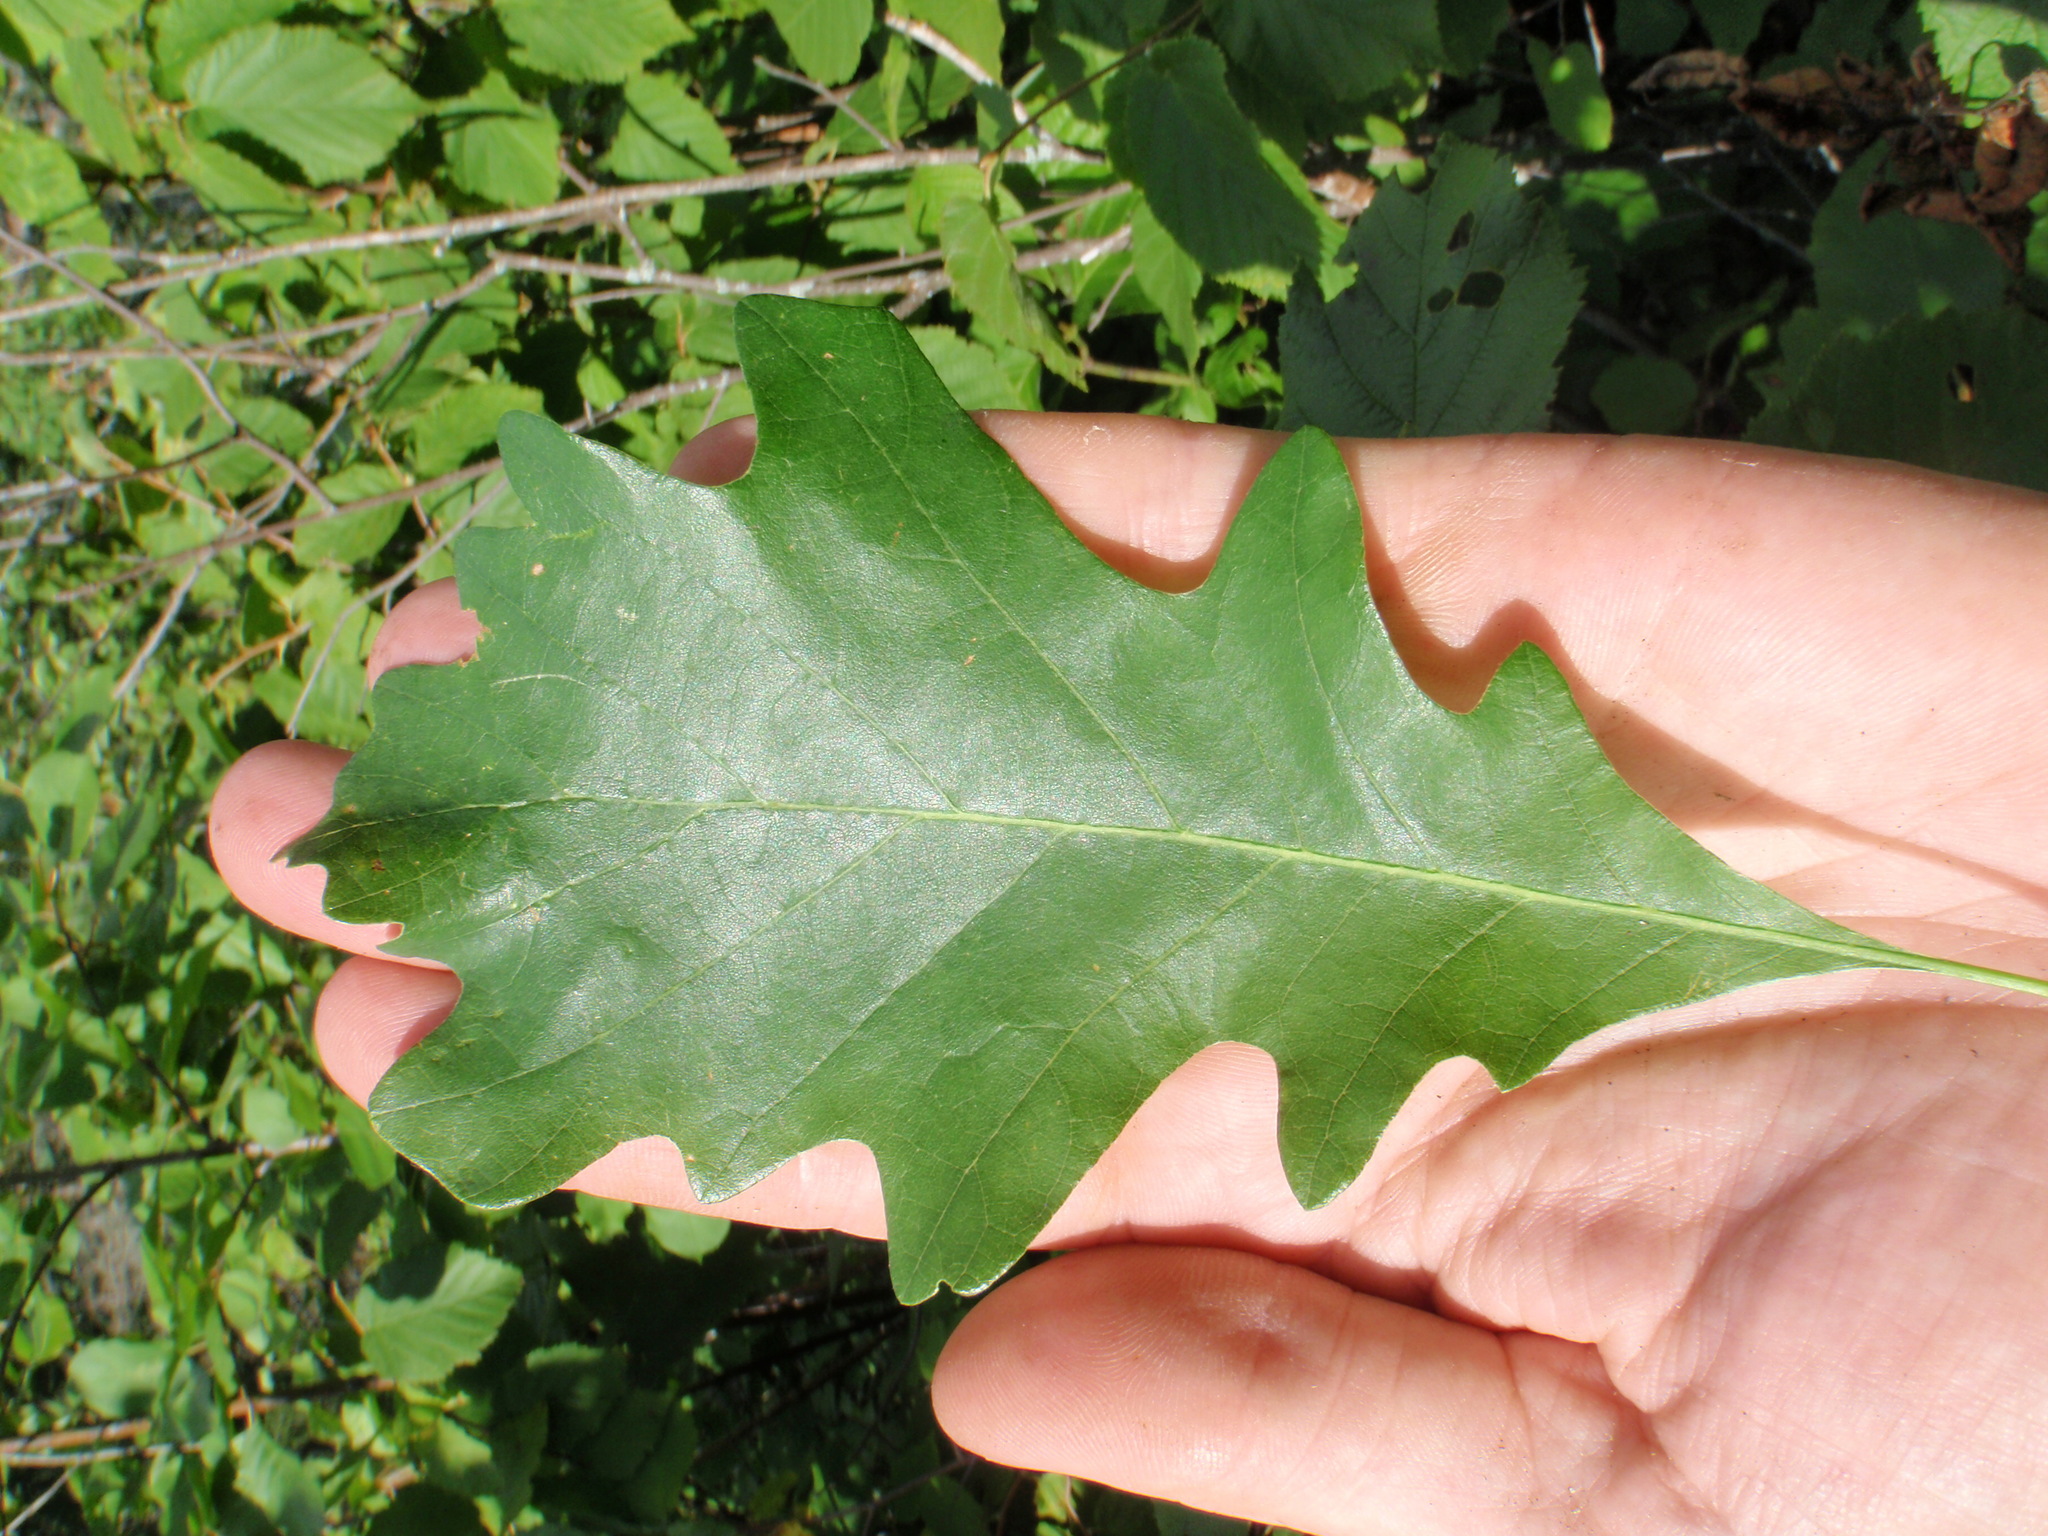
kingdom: Plantae
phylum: Tracheophyta
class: Magnoliopsida
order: Fagales
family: Fagaceae
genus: Quercus
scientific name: Quercus macrocarpa
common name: Bur oak
